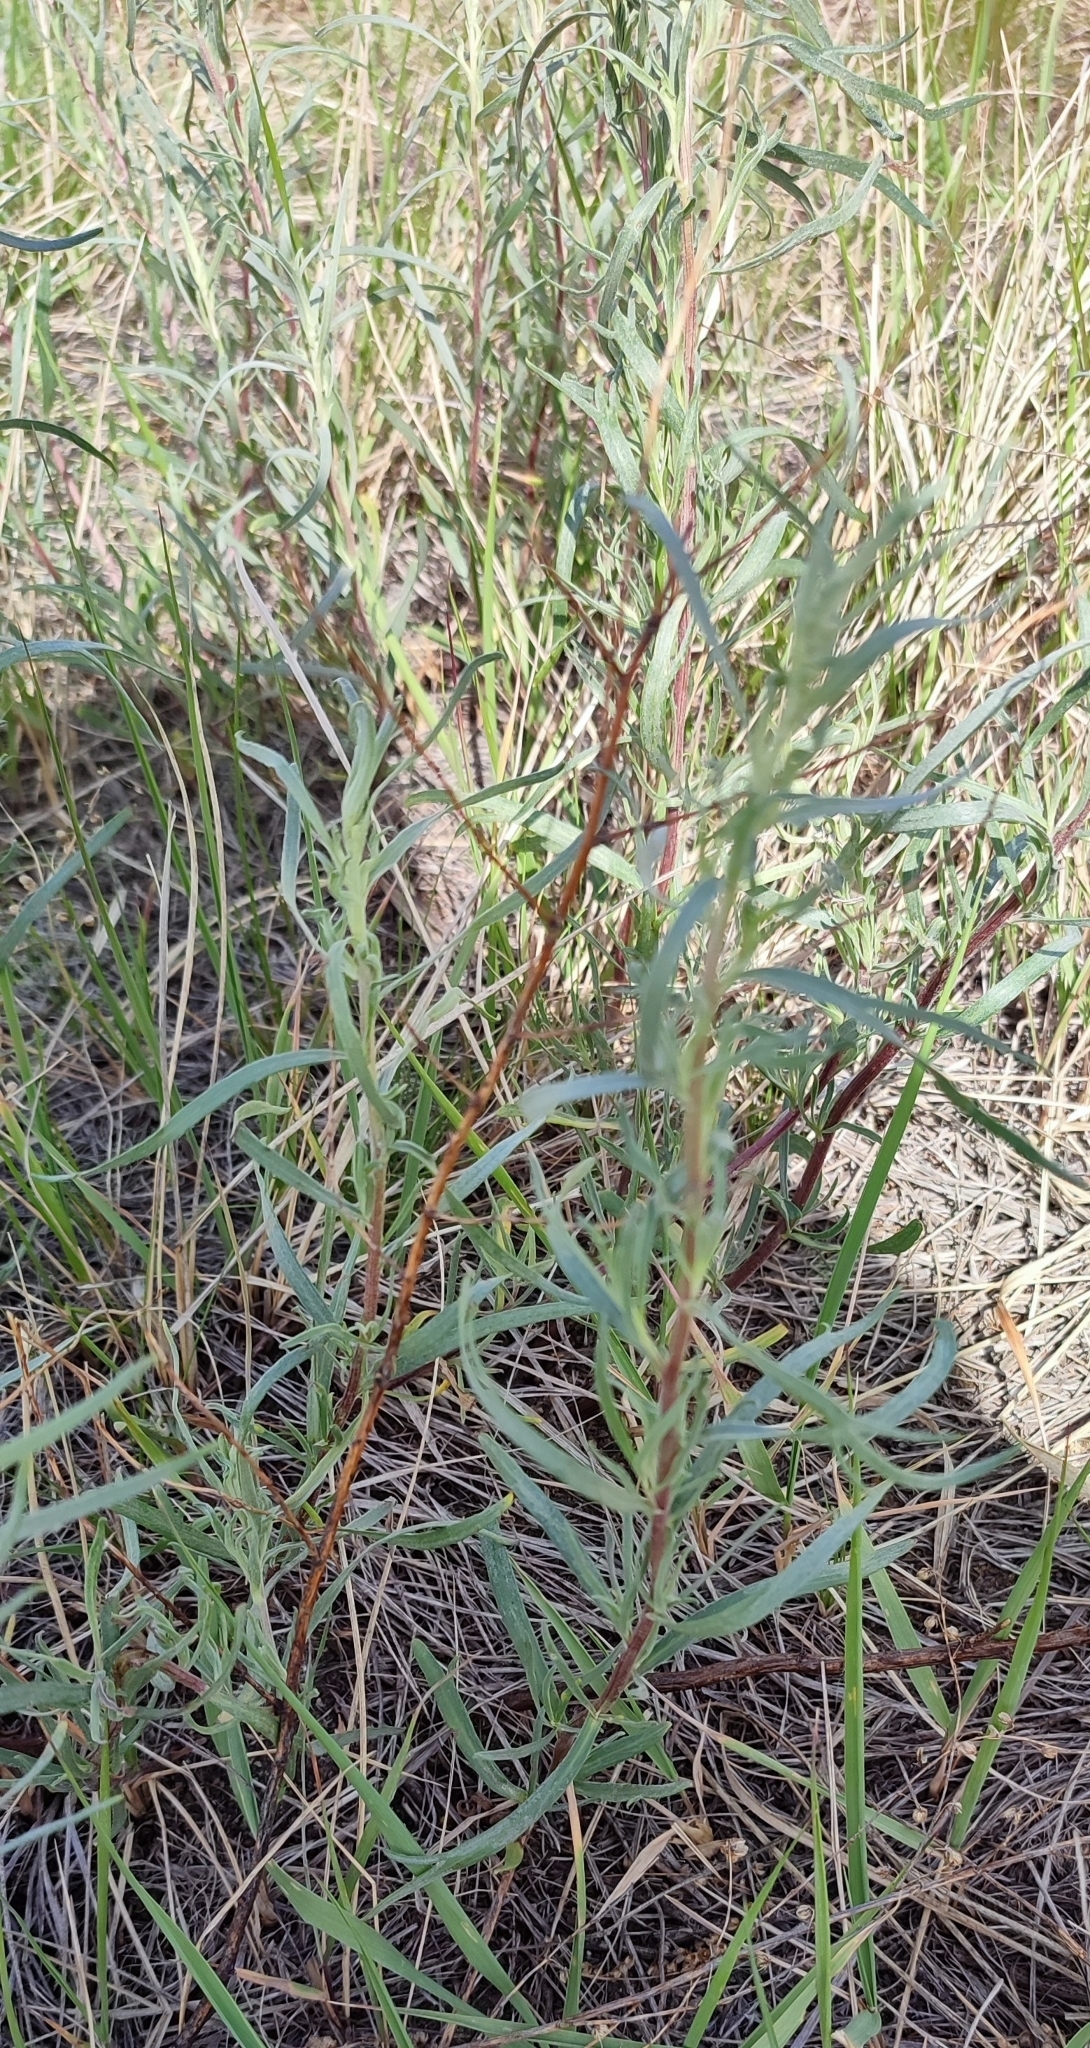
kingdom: Plantae
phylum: Tracheophyta
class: Magnoliopsida
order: Asterales
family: Asteraceae
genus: Artemisia
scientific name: Artemisia dracunculus
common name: Tarragon
